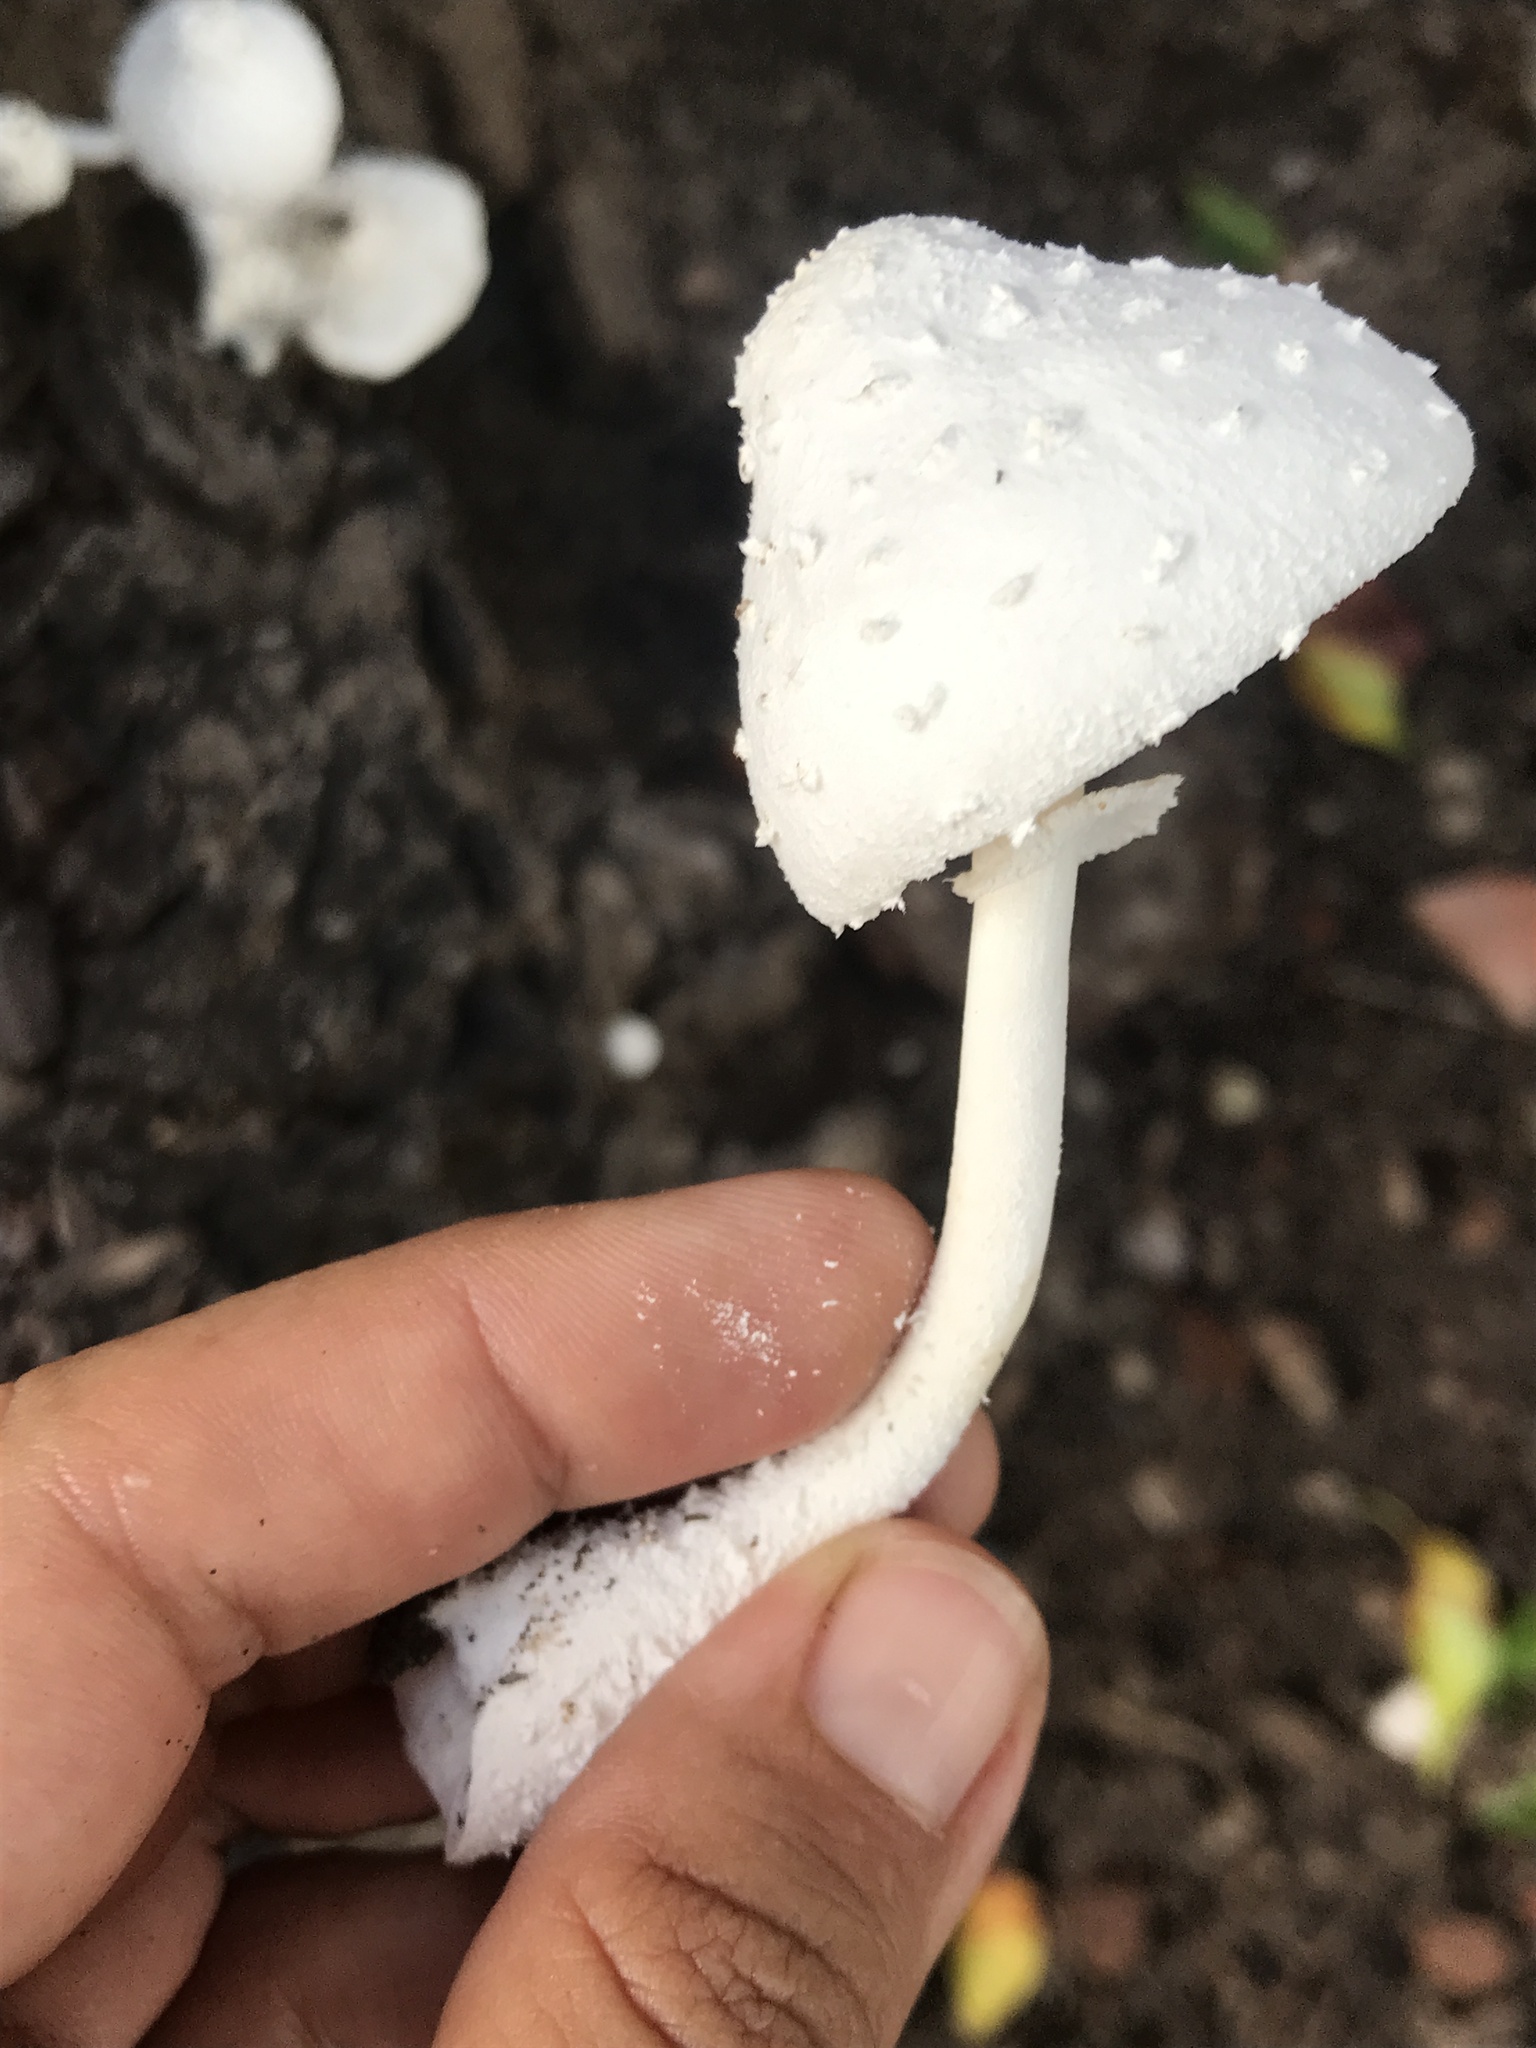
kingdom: Fungi
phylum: Basidiomycota
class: Agaricomycetes
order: Agaricales
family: Agaricaceae
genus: Leucocoprinus
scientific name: Leucocoprinus cretaceus
